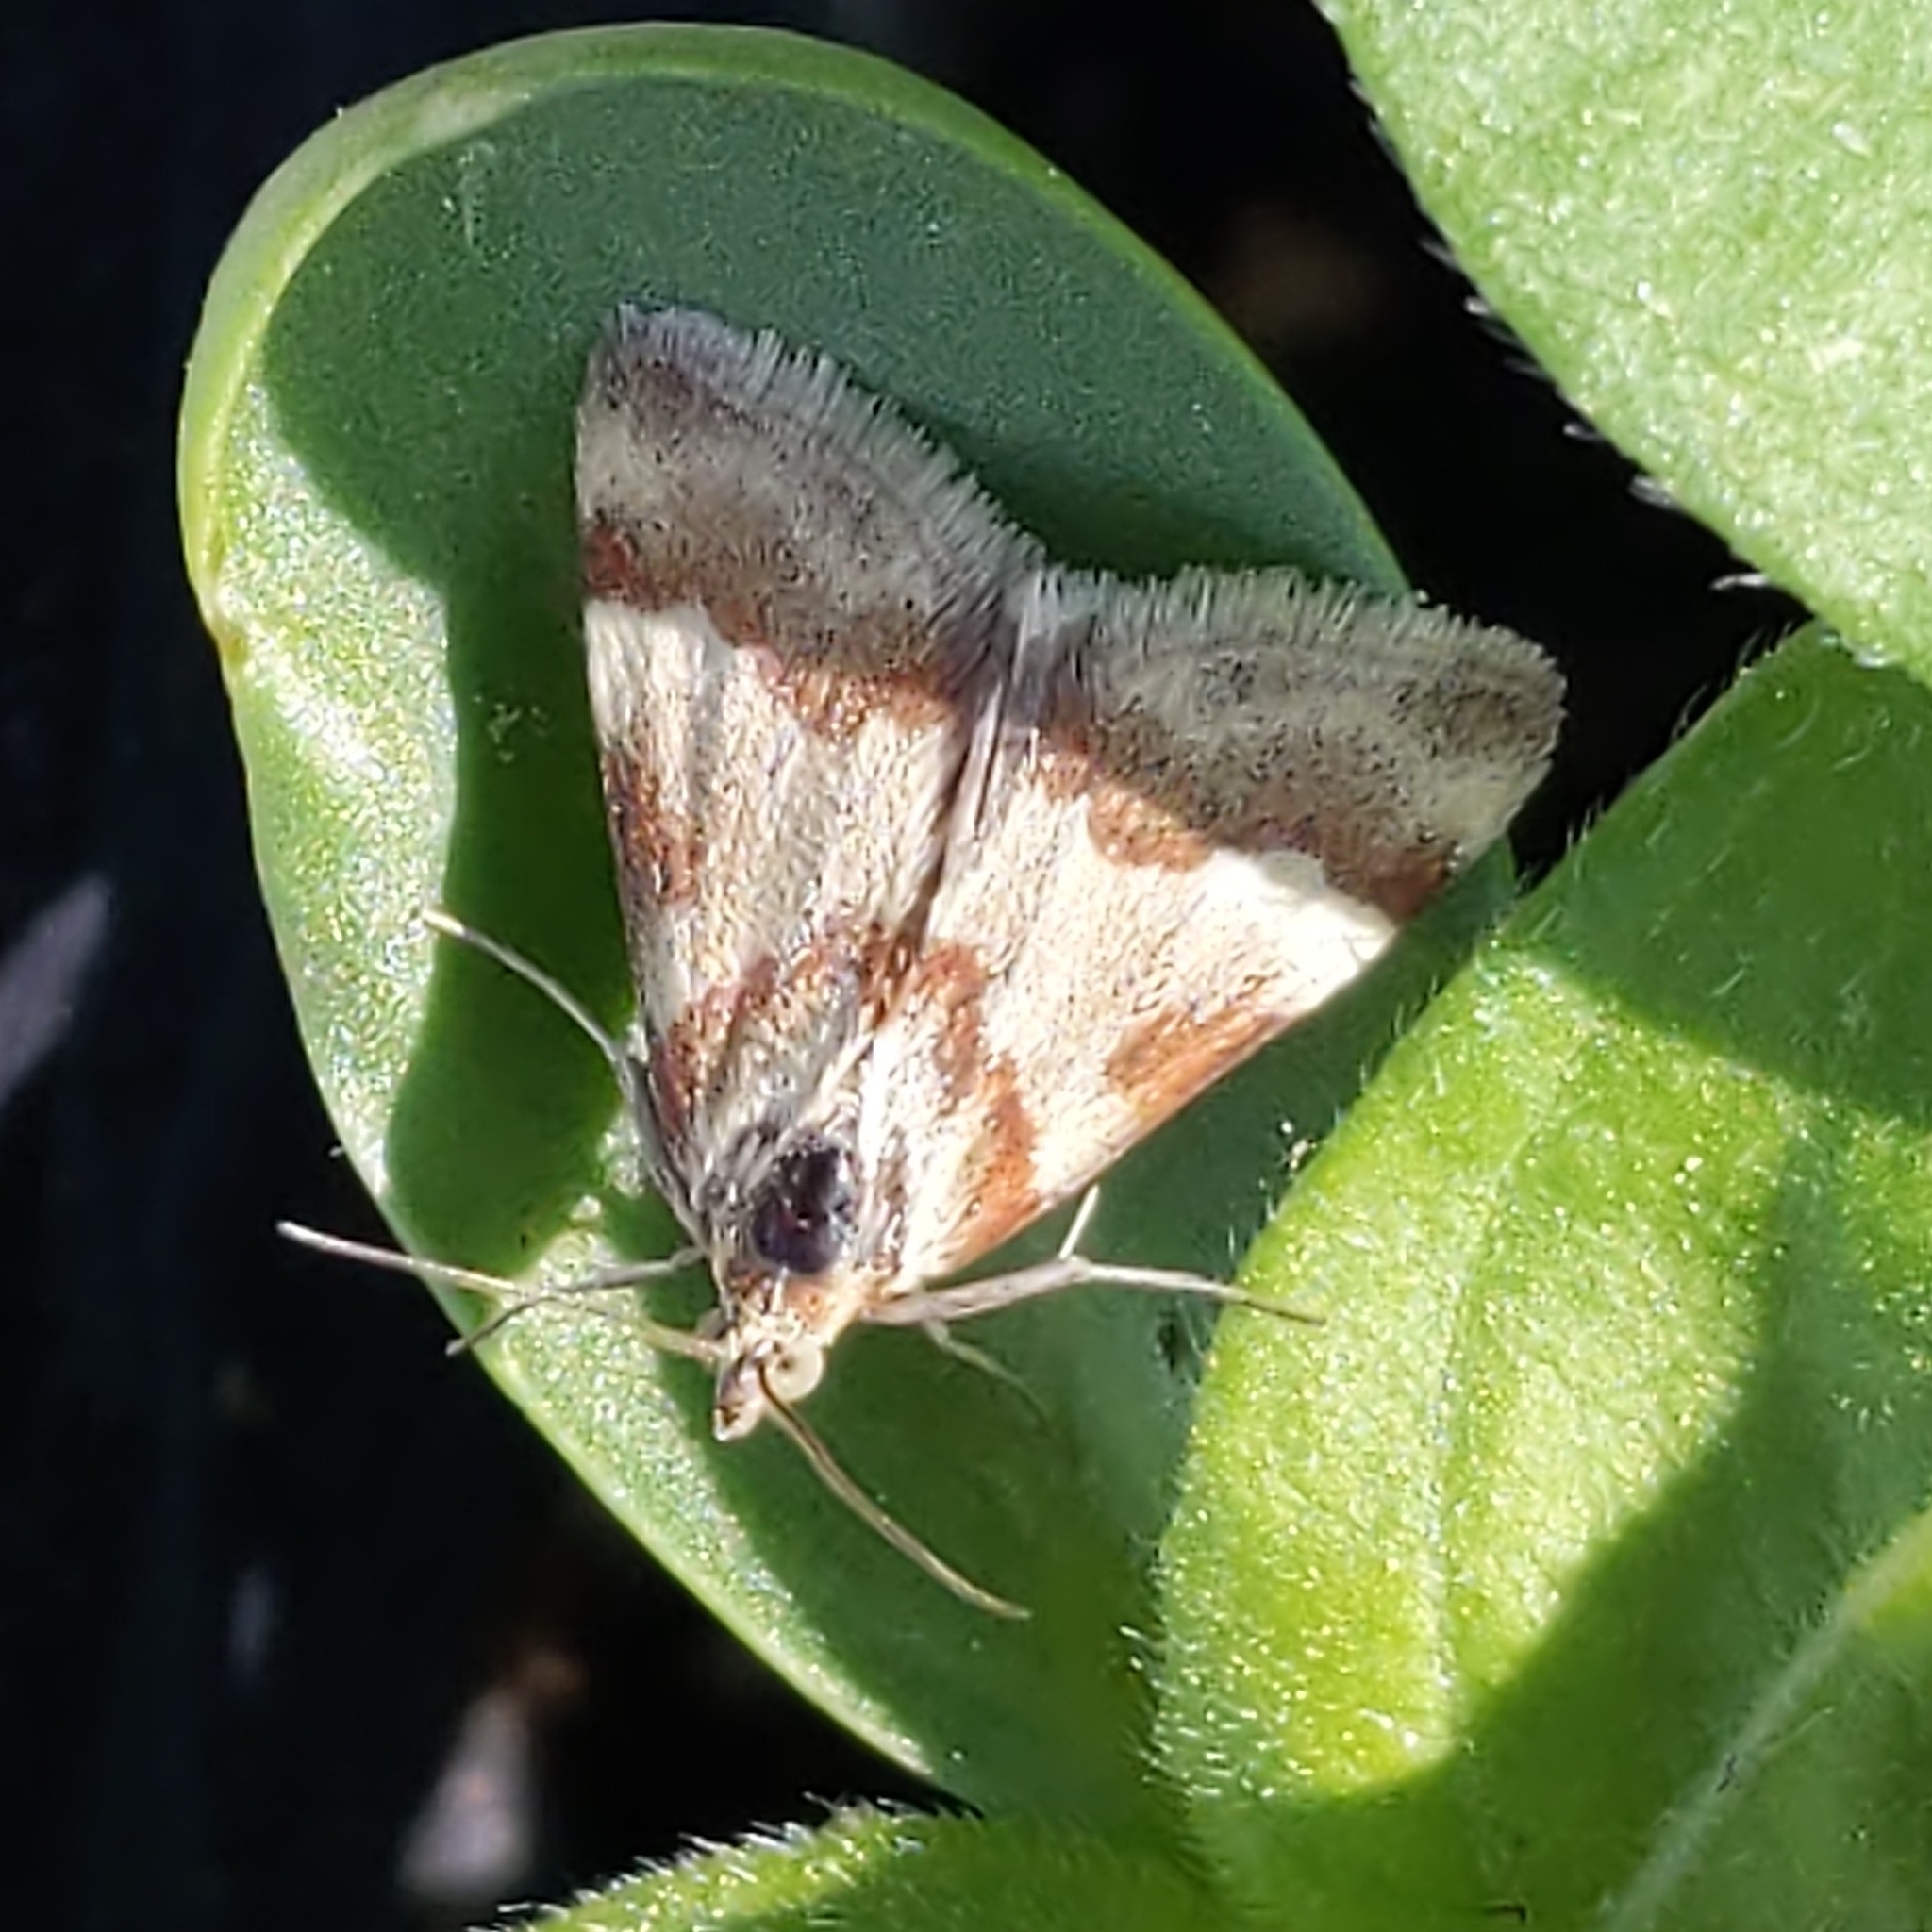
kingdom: Animalia
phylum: Arthropoda
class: Insecta
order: Lepidoptera
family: Crambidae
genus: Noctuelia
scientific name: Noctuelia Mimoschinia rufofascialis
